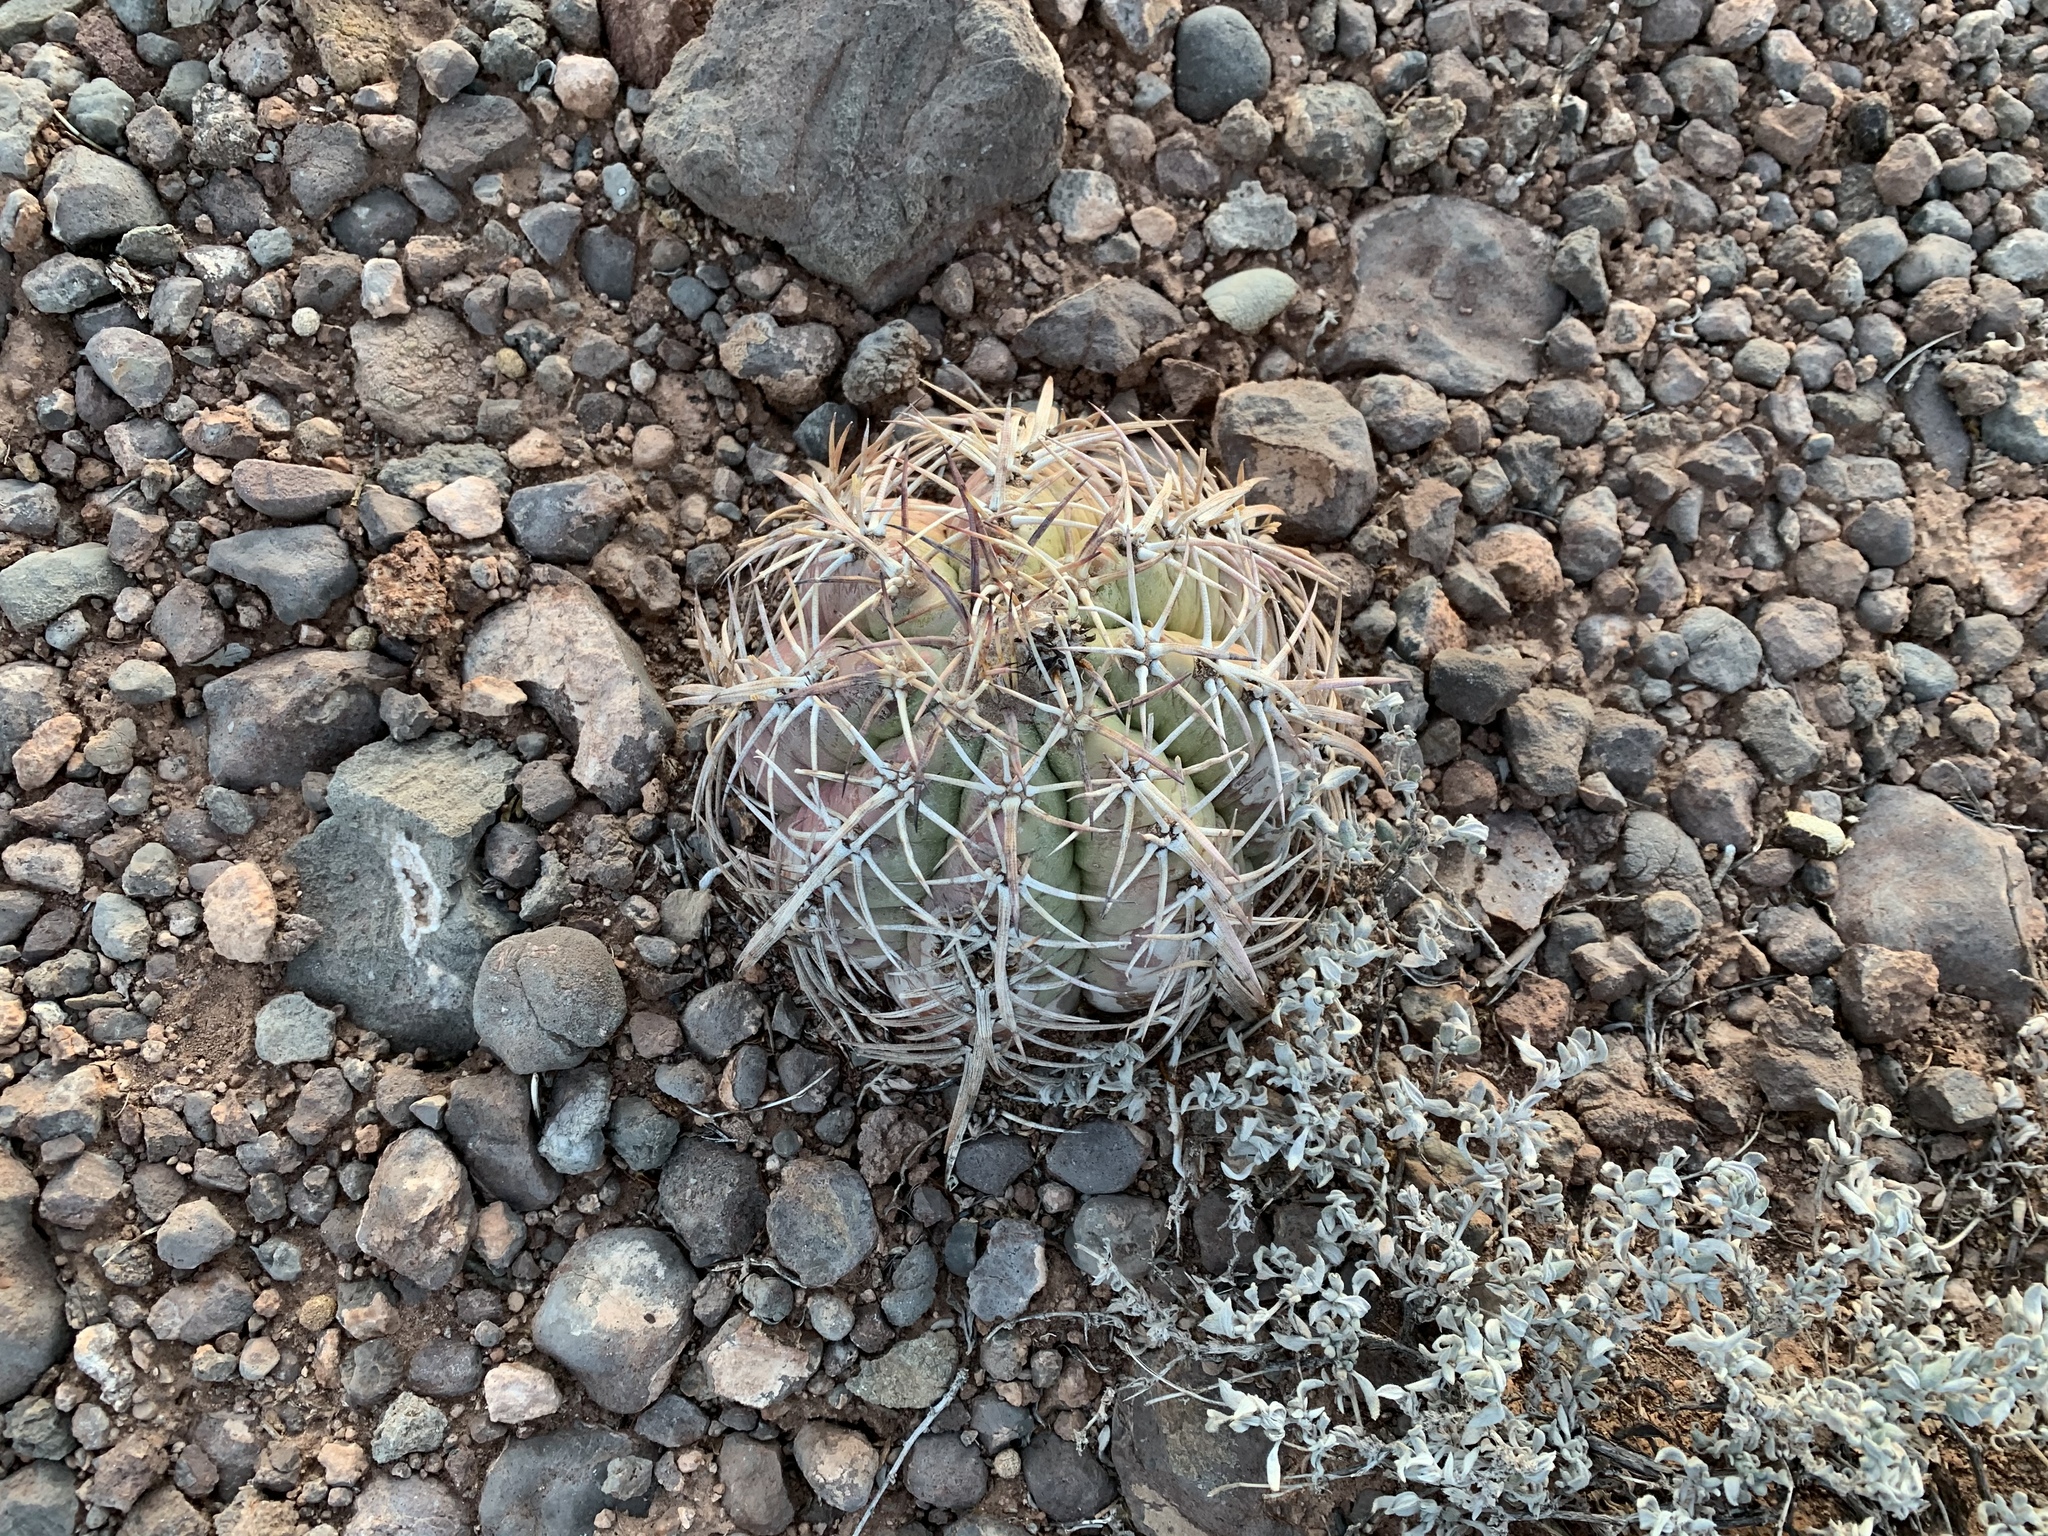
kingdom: Plantae
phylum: Tracheophyta
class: Magnoliopsida
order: Caryophyllales
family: Cactaceae
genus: Echinocactus
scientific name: Echinocactus horizonthalonius
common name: Devilshead
